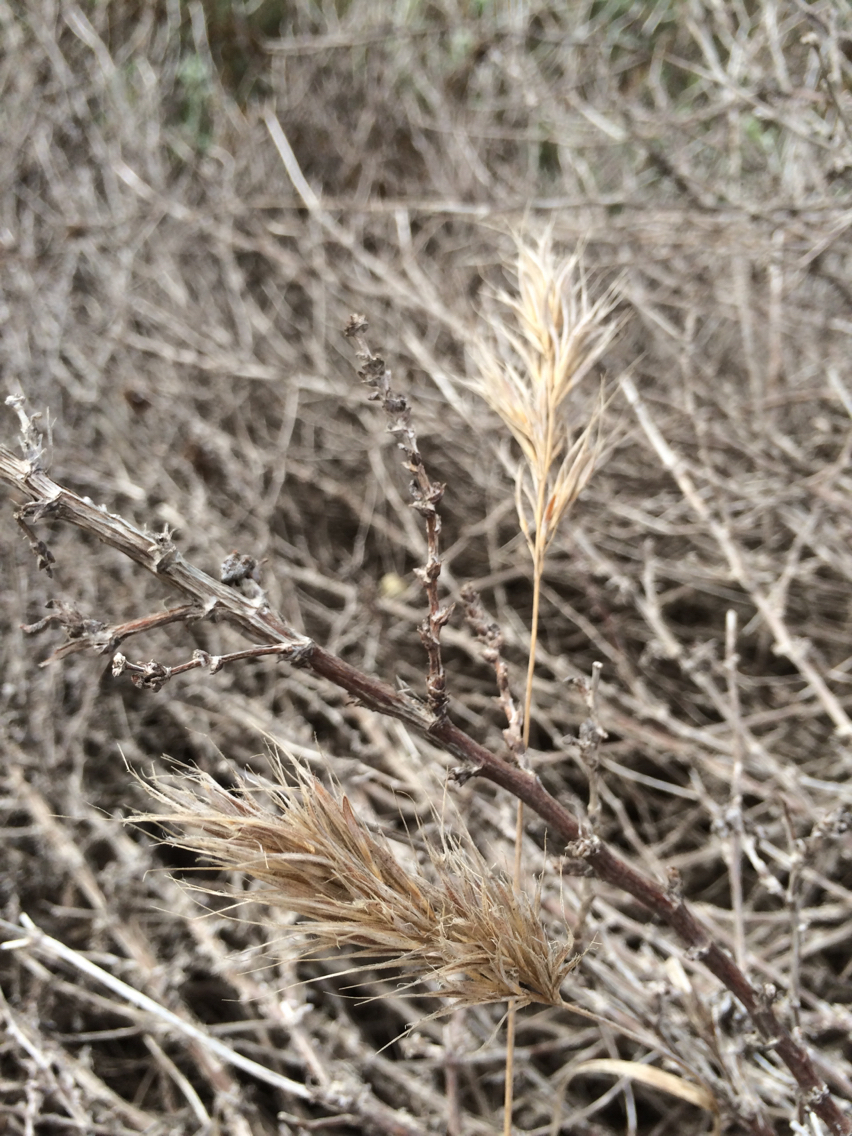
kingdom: Plantae
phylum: Tracheophyta
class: Liliopsida
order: Poales
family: Poaceae
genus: Bromus
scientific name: Bromus madritensis
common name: Compact brome
